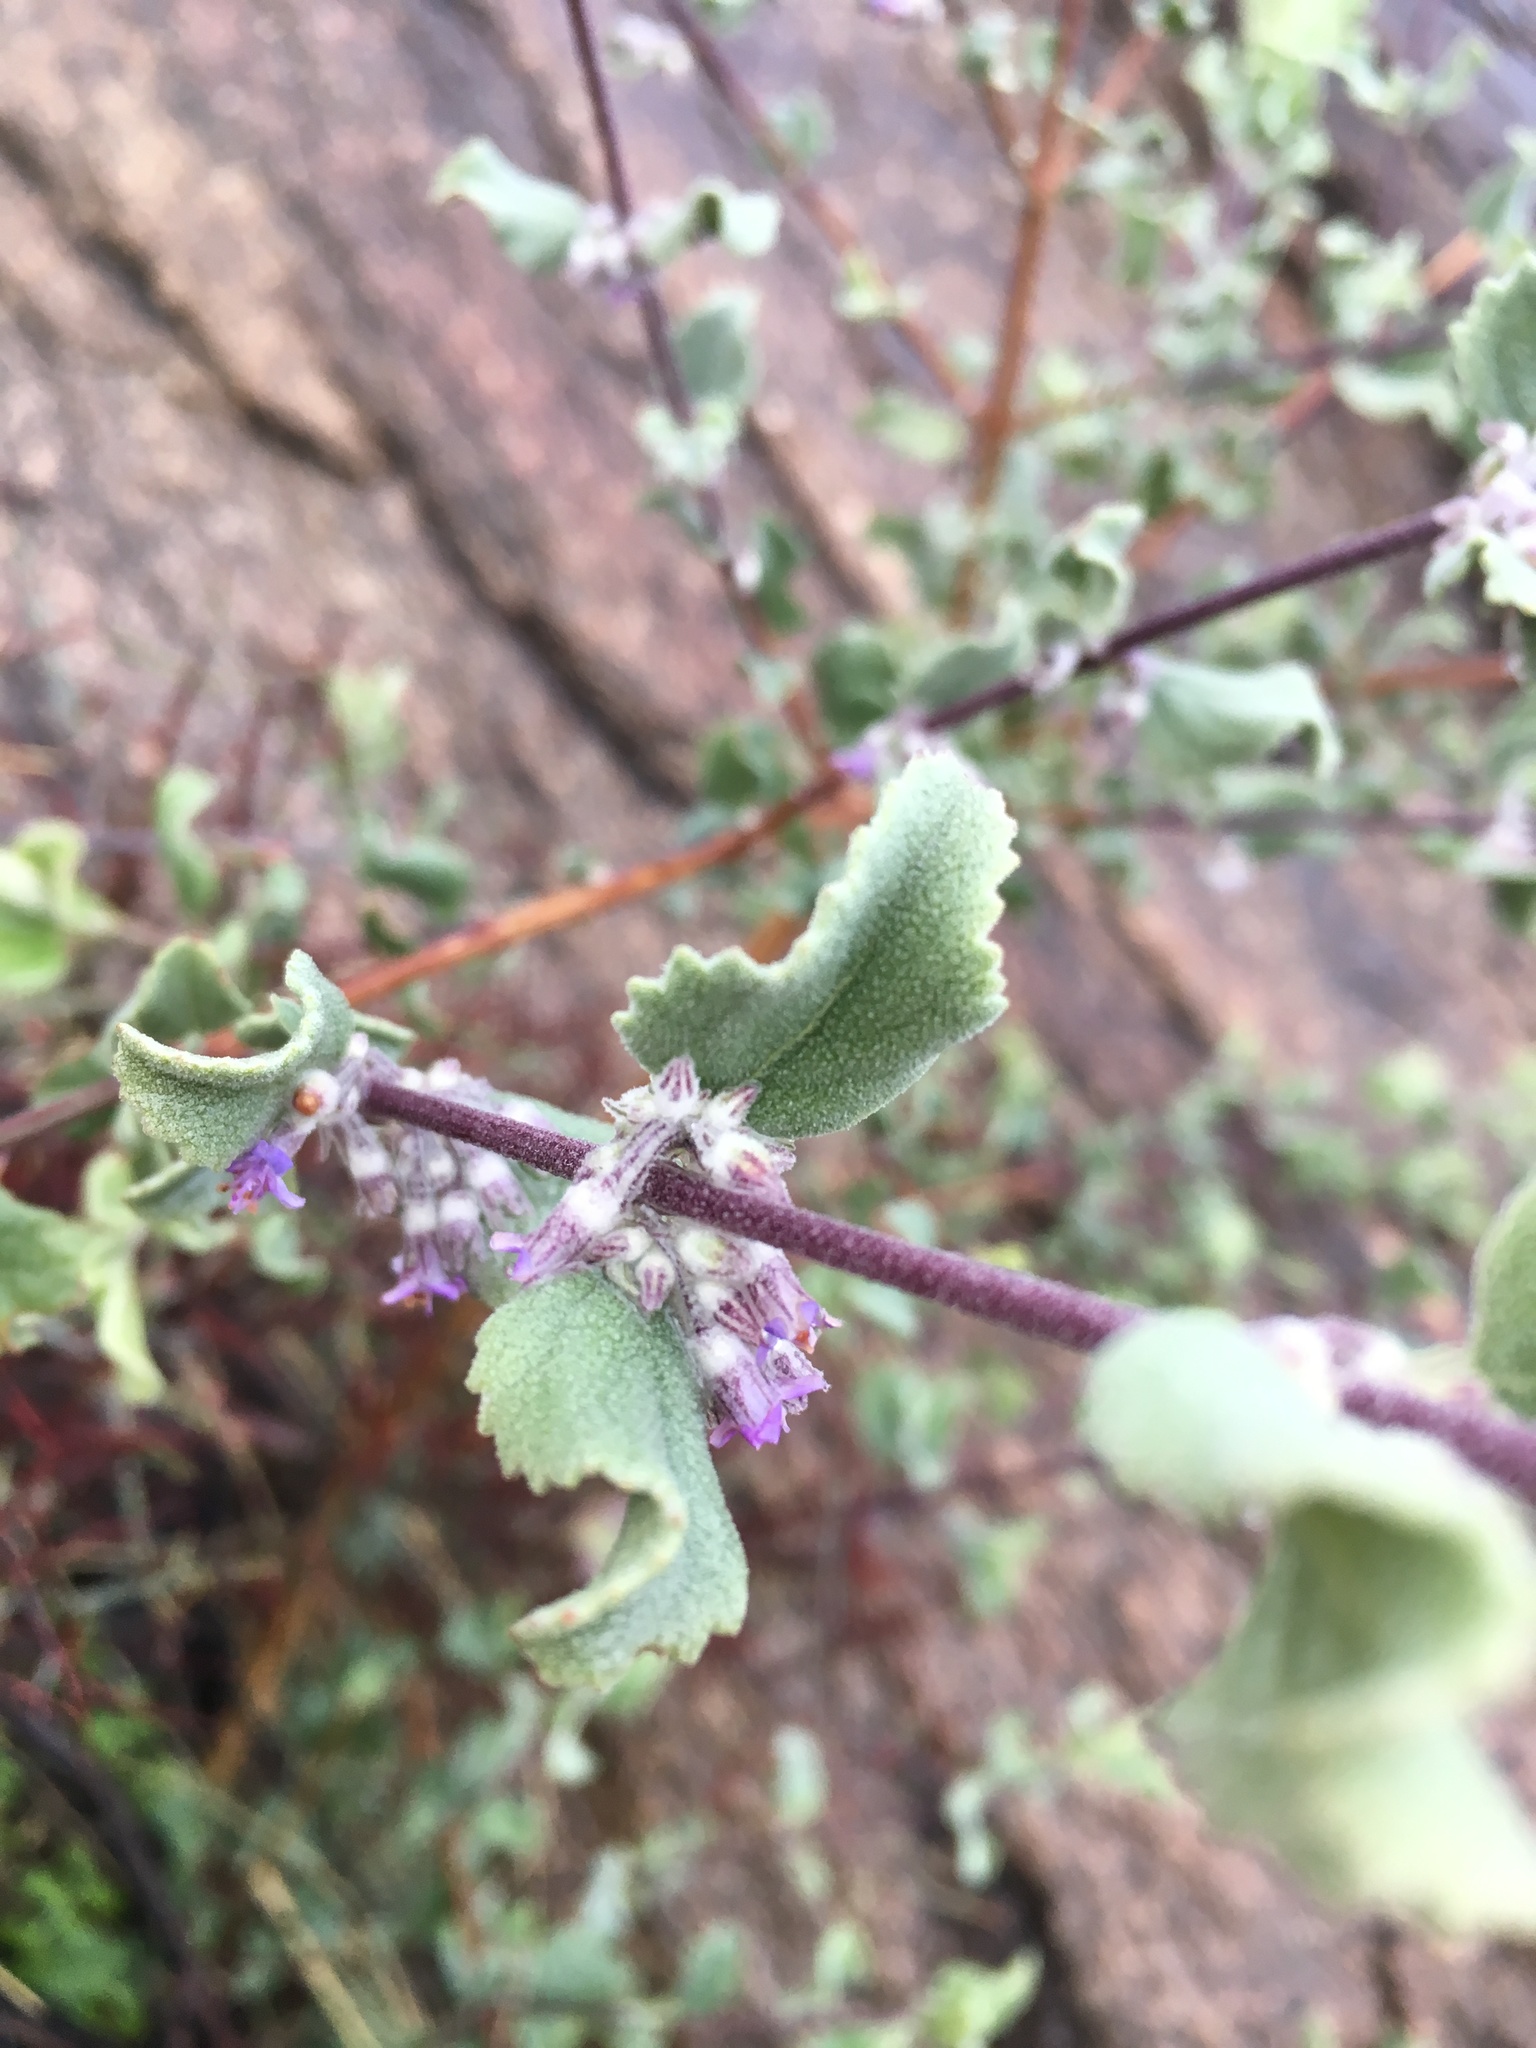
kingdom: Plantae
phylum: Tracheophyta
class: Magnoliopsida
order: Lamiales
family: Lamiaceae
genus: Condea
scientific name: Condea emoryi
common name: Chia
